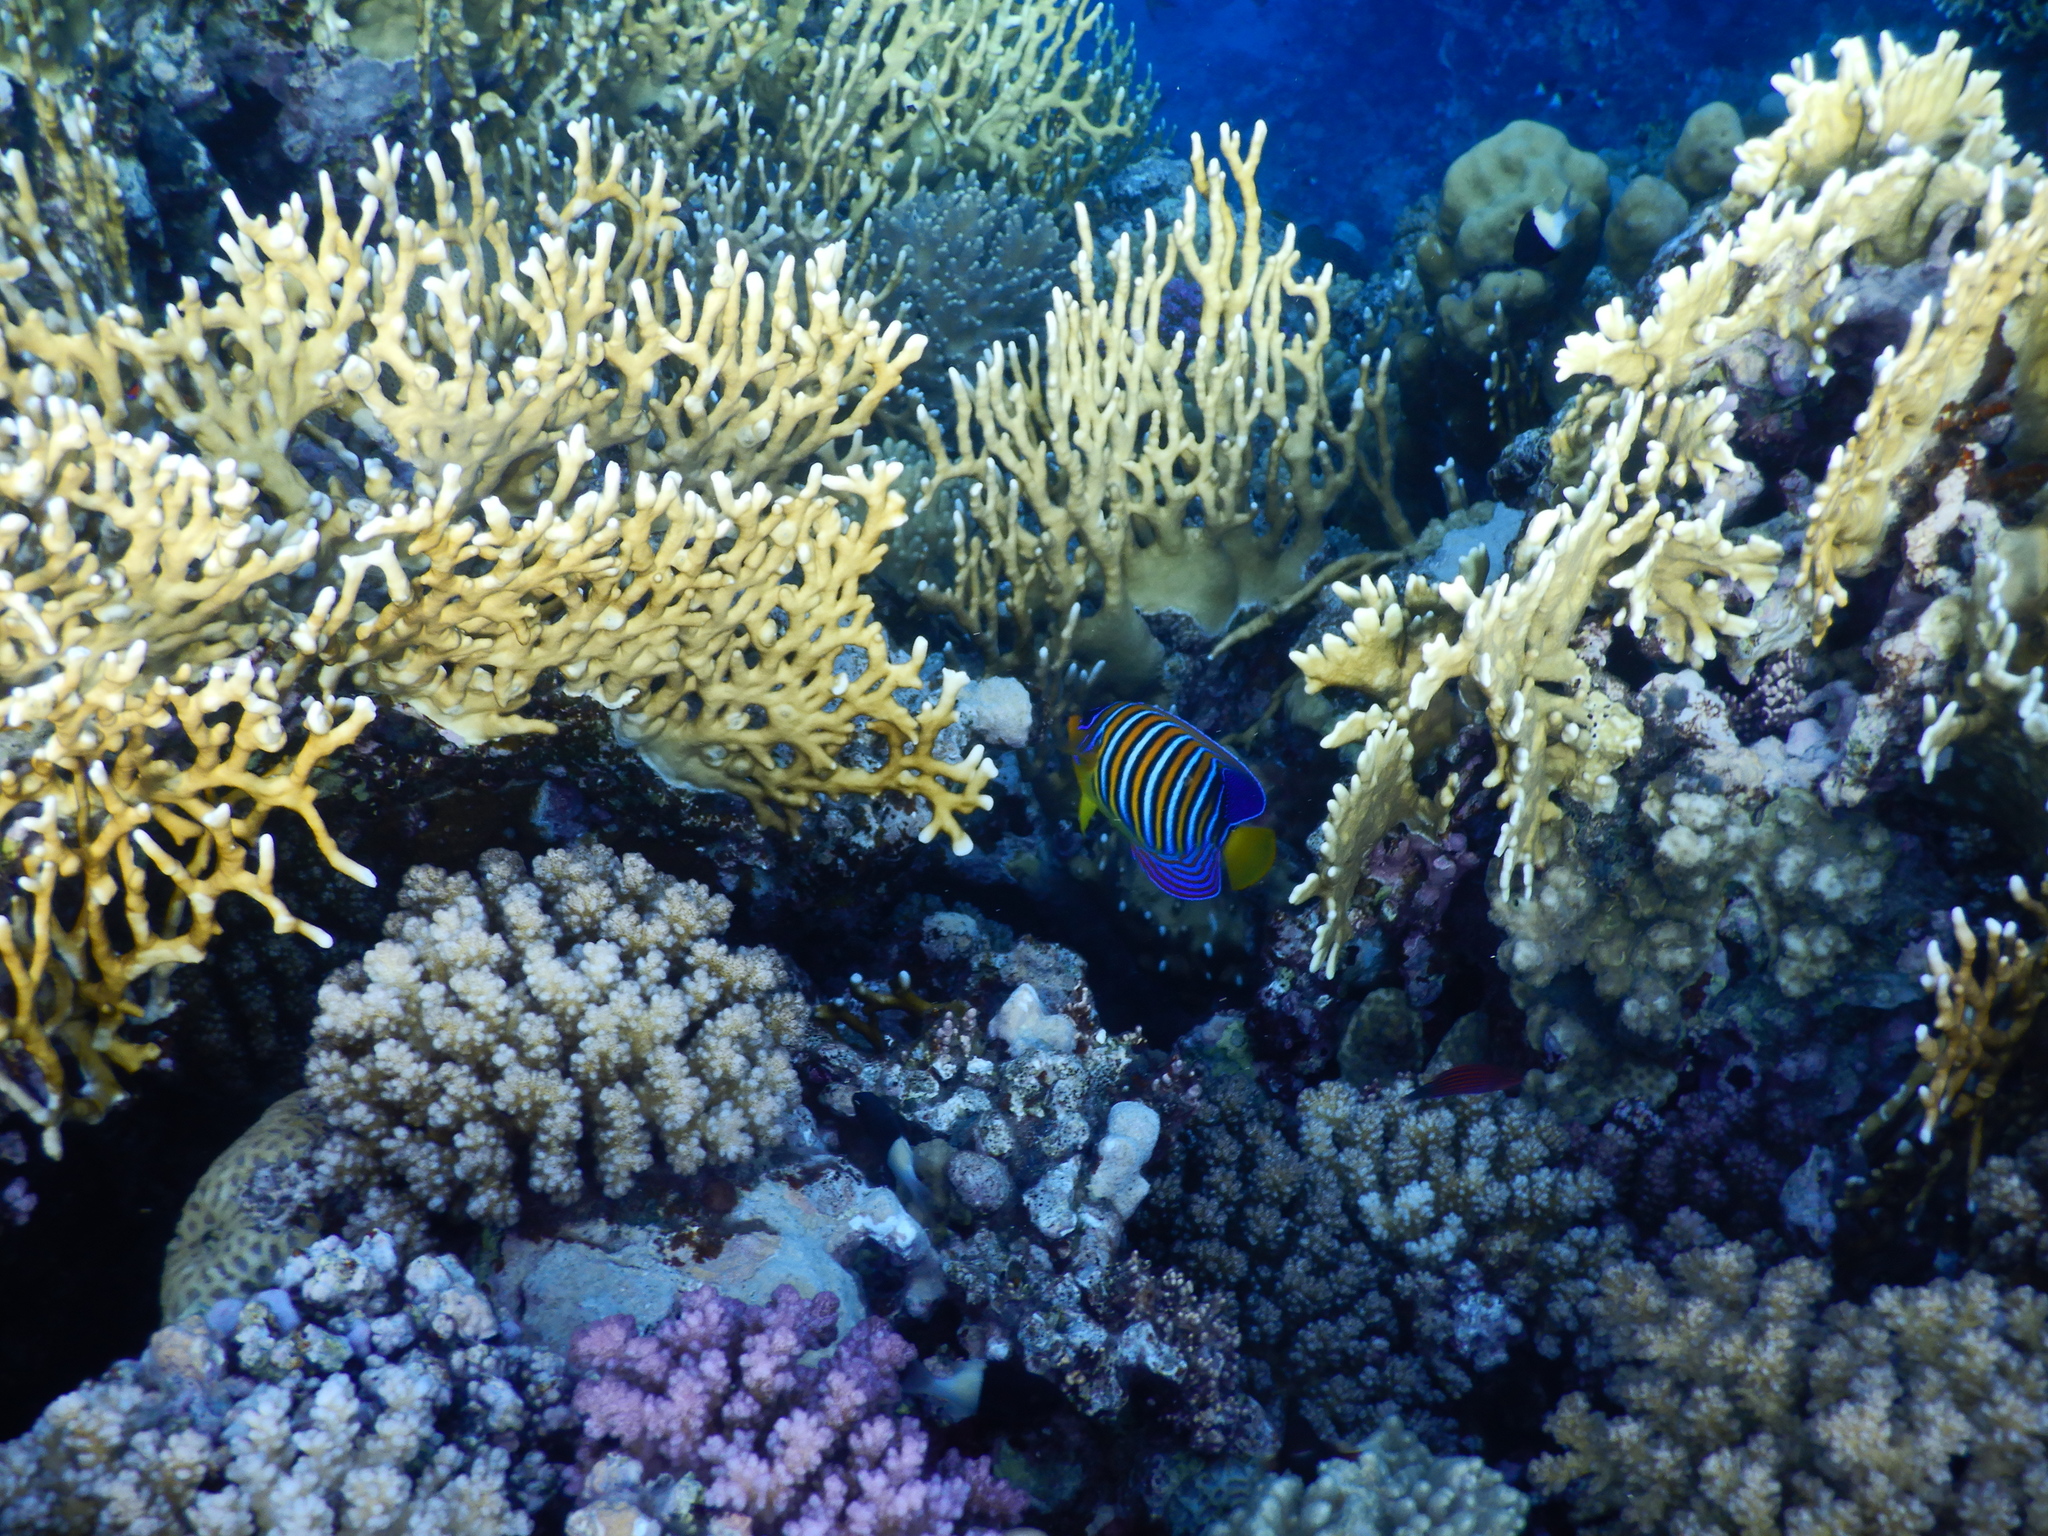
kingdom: Animalia
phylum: Chordata
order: Perciformes
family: Pomacanthidae
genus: Pygoplites
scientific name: Pygoplites diacanthus
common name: Regal angelfish
